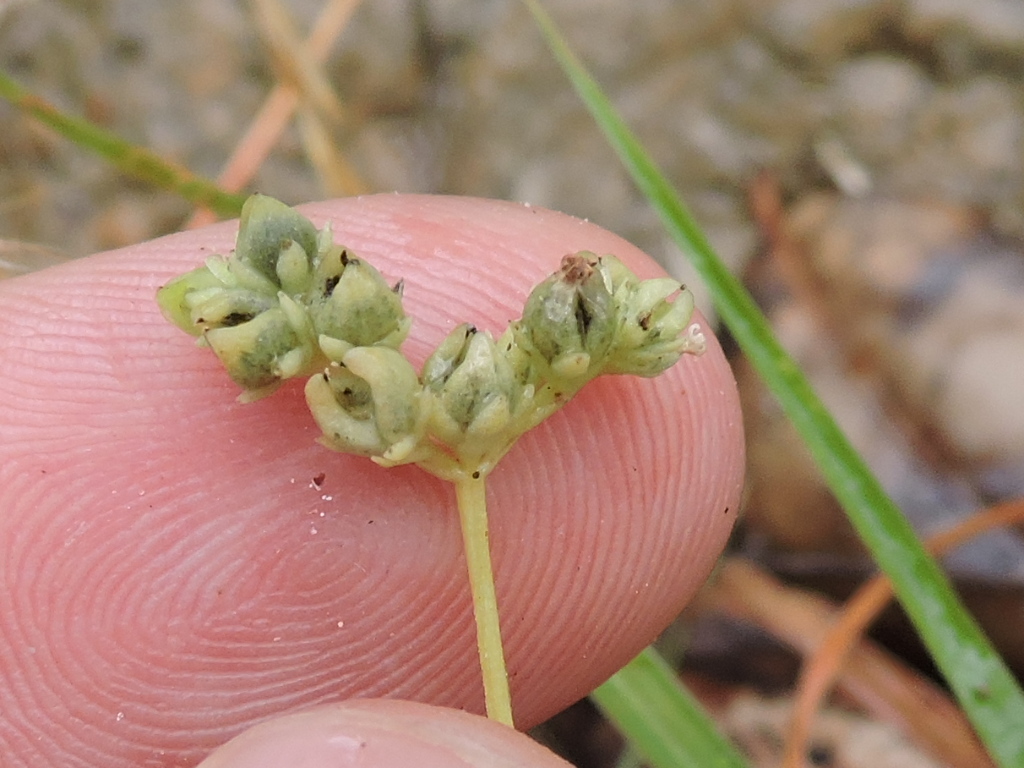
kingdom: Plantae
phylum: Tracheophyta
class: Magnoliopsida
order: Gentianales
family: Loganiaceae
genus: Mitreola
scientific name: Mitreola petiolata
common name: Lax hornpod
